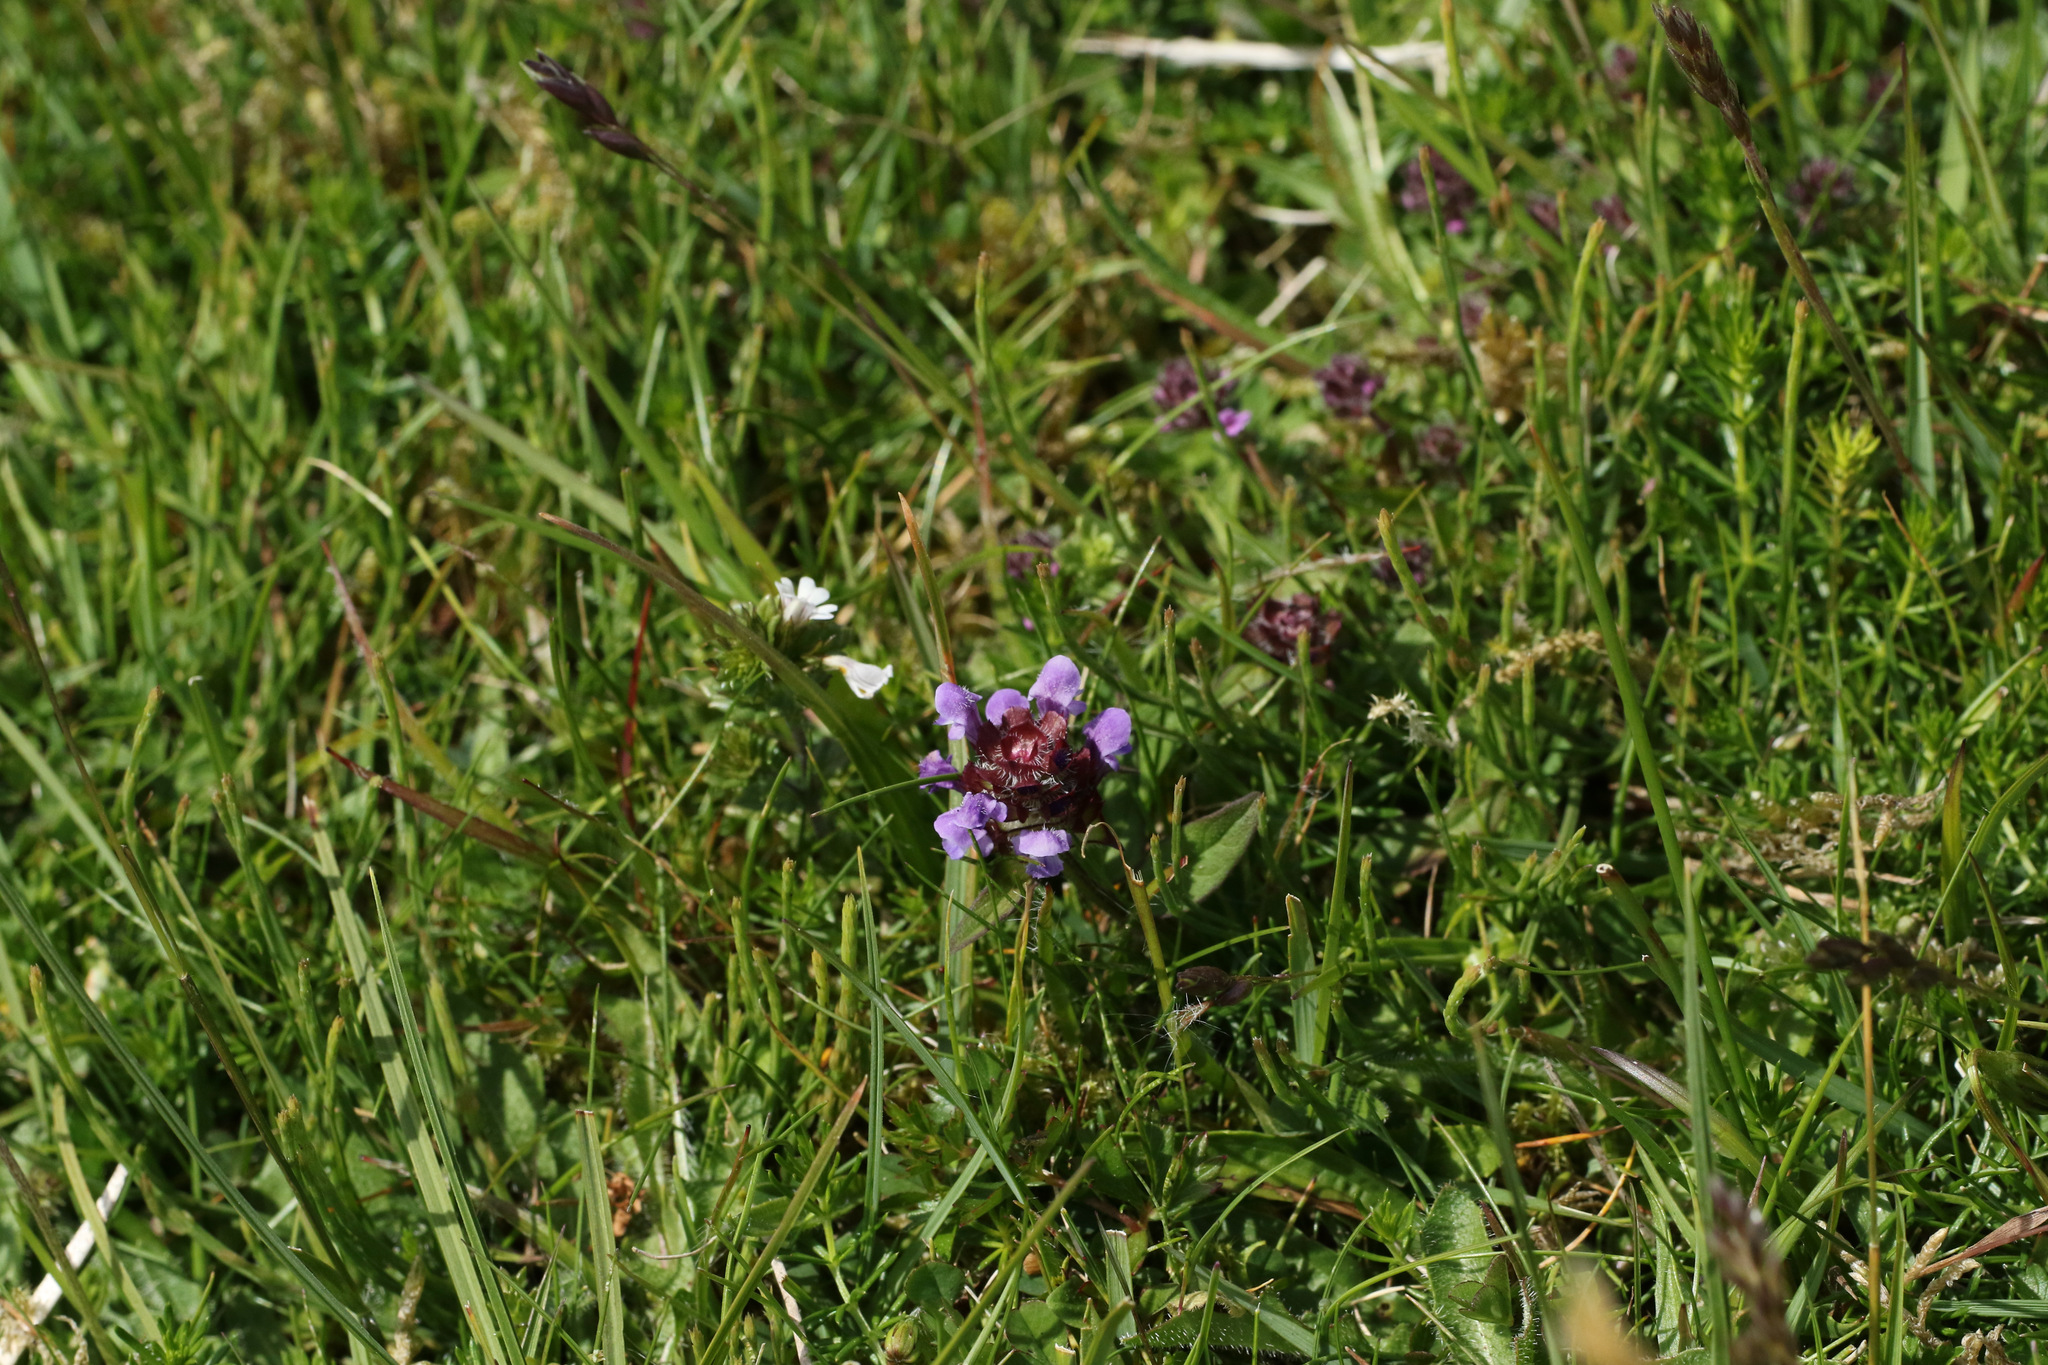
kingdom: Plantae
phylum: Tracheophyta
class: Magnoliopsida
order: Lamiales
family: Lamiaceae
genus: Prunella
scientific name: Prunella vulgaris
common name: Heal-all
